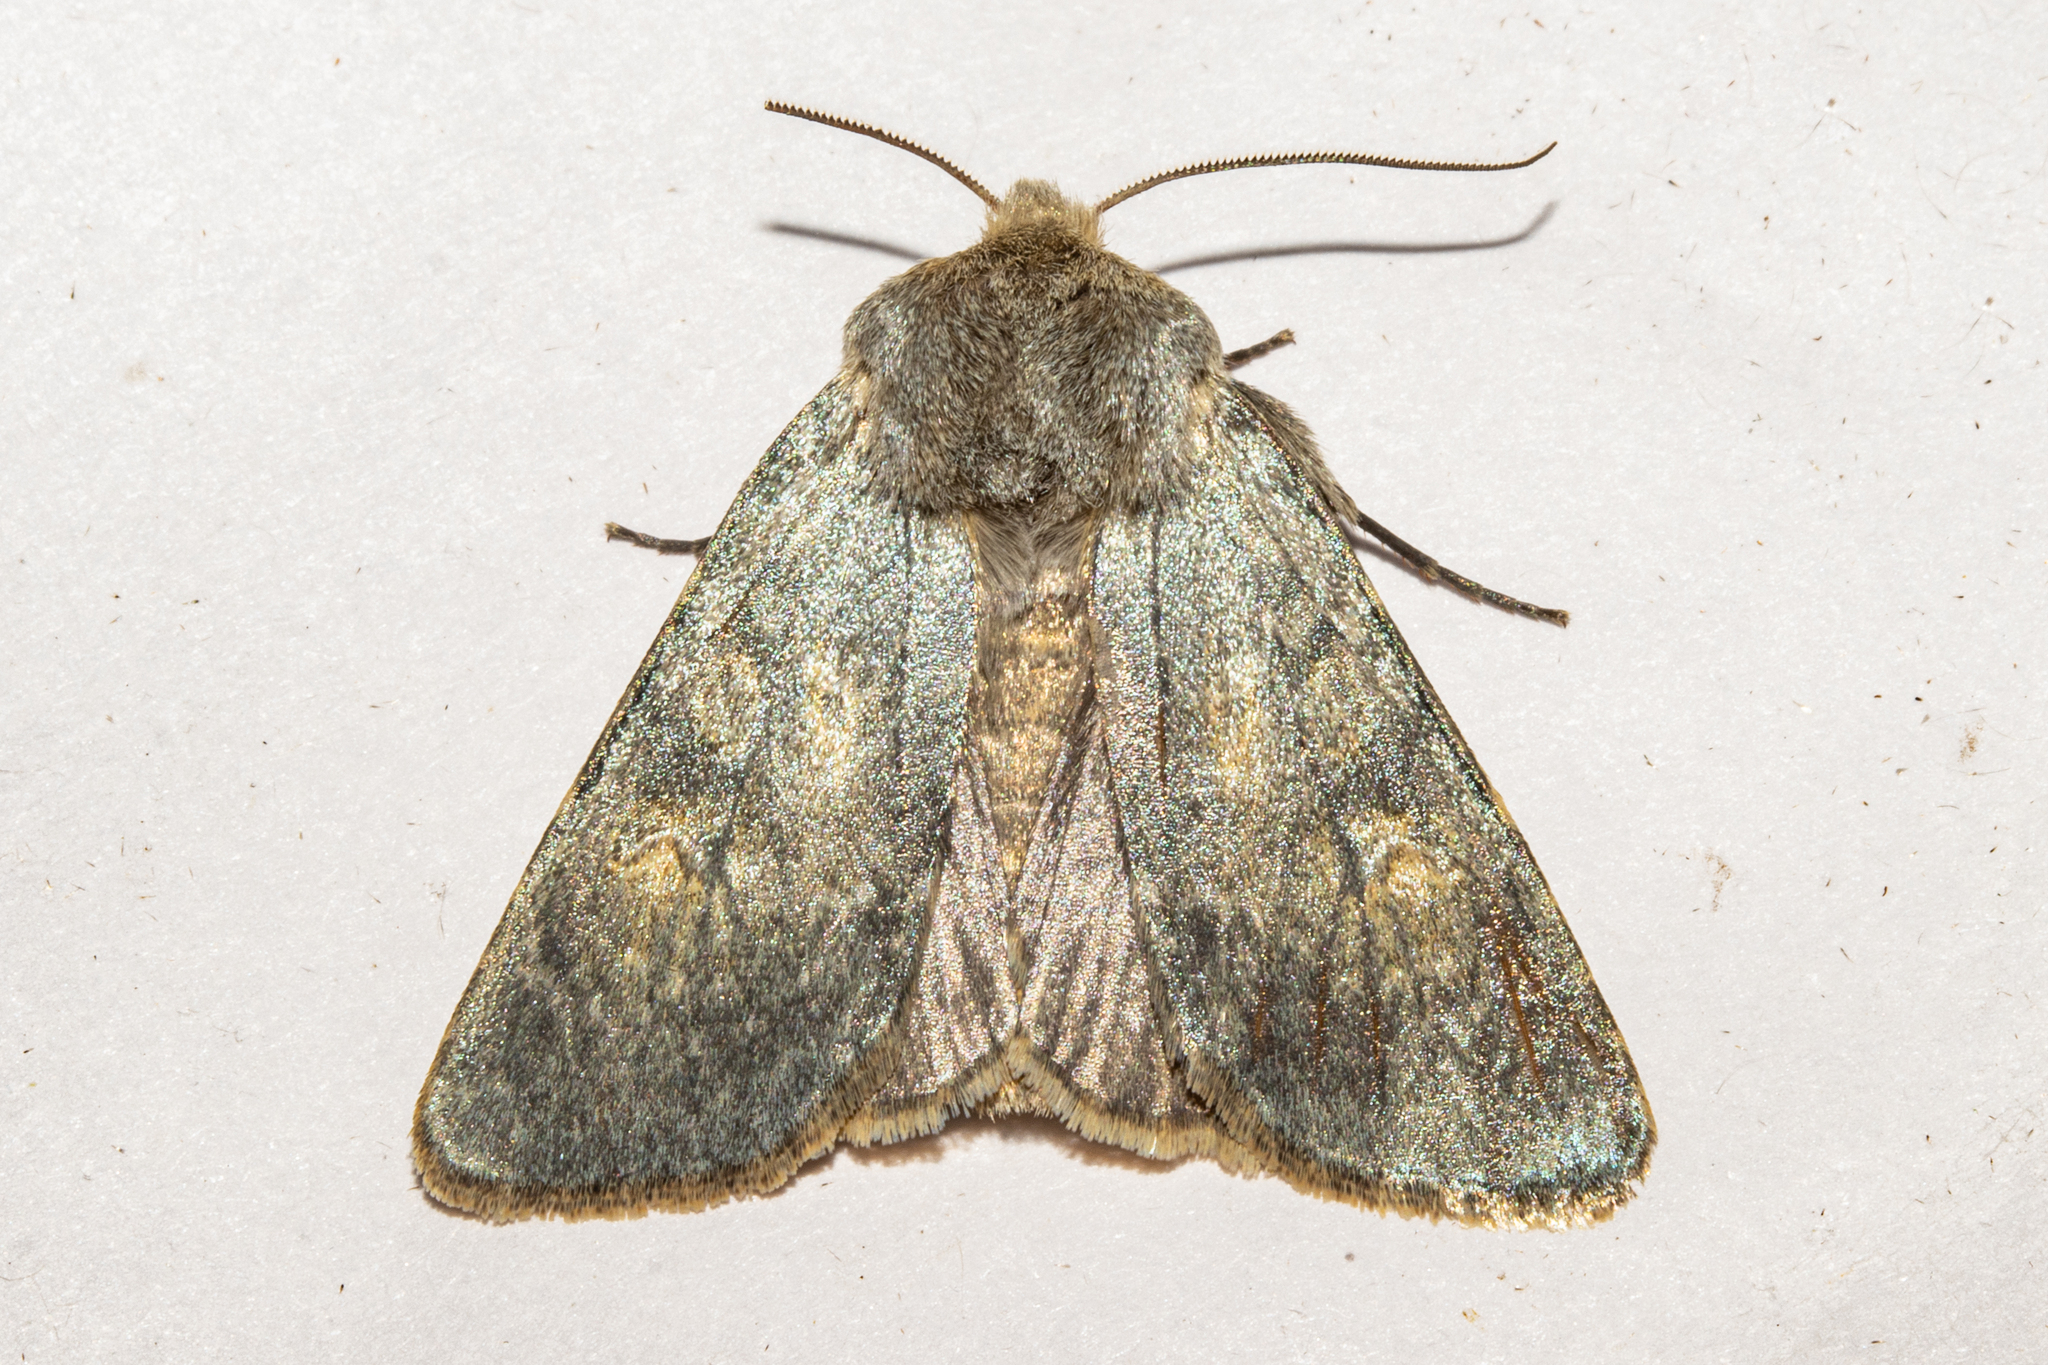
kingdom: Animalia
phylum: Arthropoda
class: Insecta
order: Lepidoptera
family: Noctuidae
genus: Ichneutica
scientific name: Ichneutica
